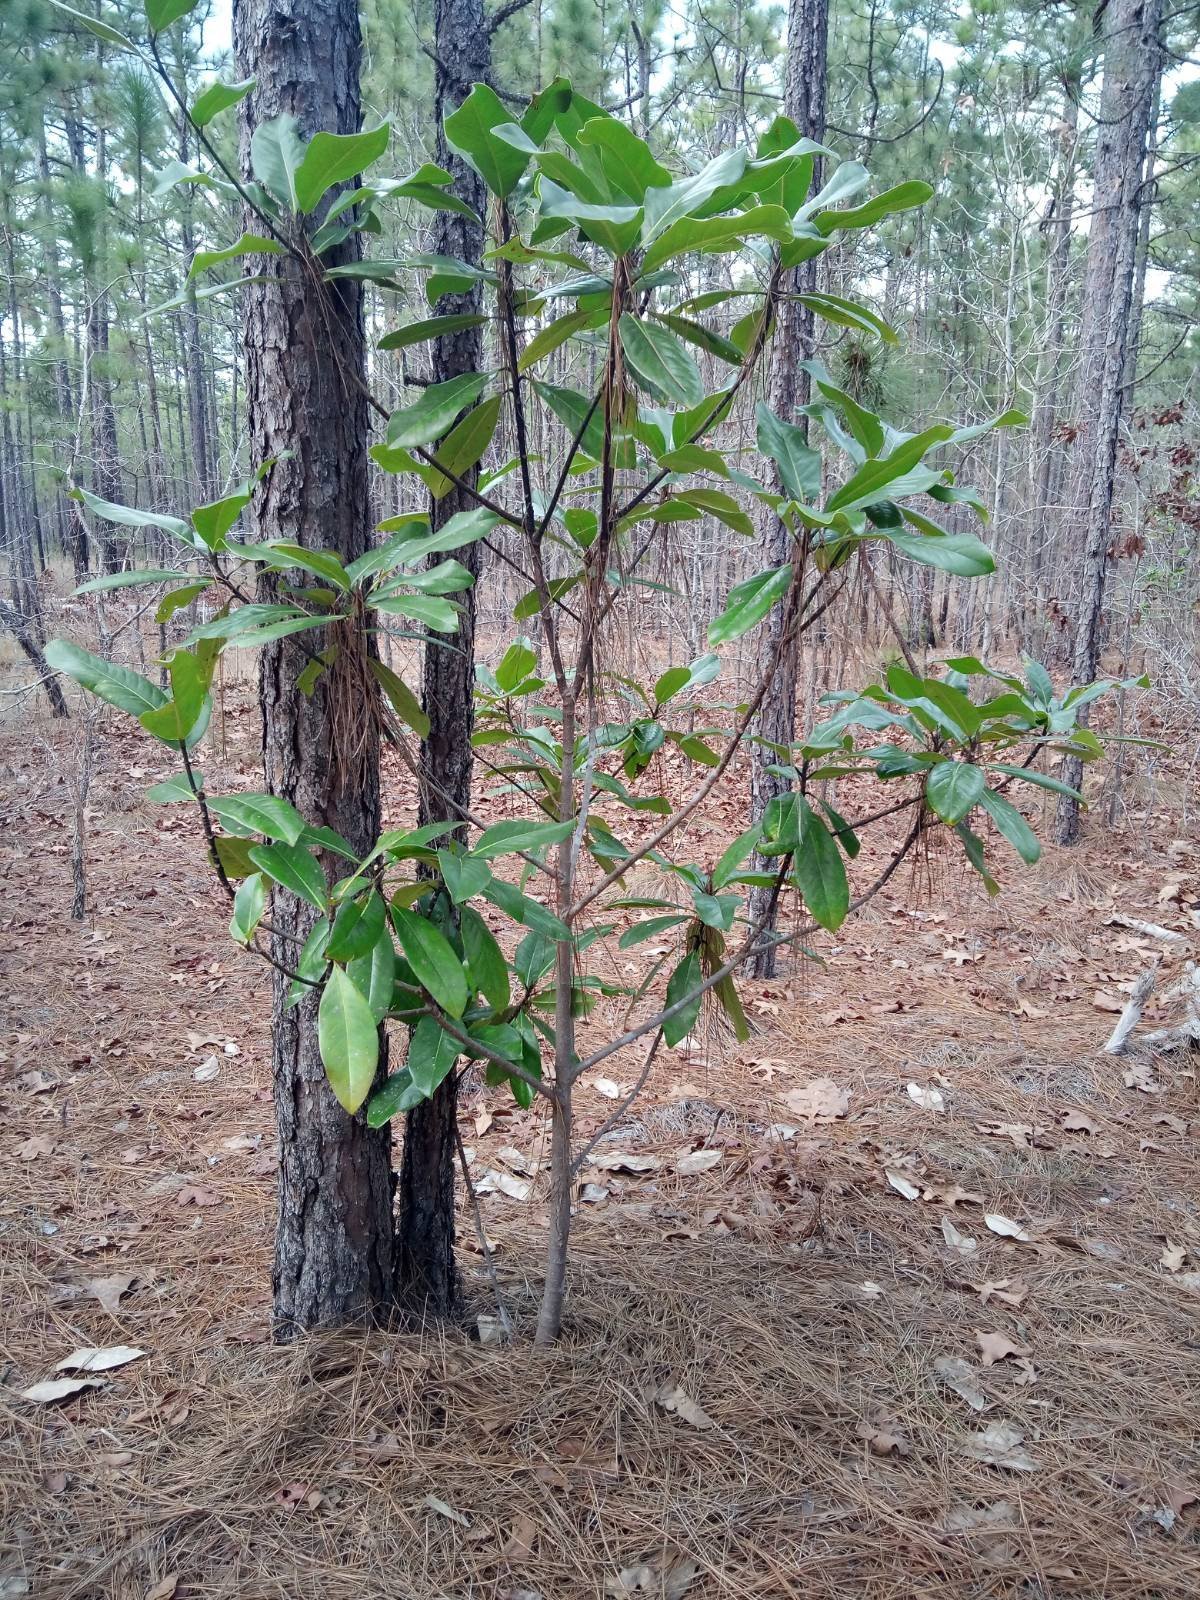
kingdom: Plantae
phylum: Tracheophyta
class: Magnoliopsida
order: Magnoliales
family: Magnoliaceae
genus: Magnolia
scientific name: Magnolia grandiflora
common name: Southern magnolia
